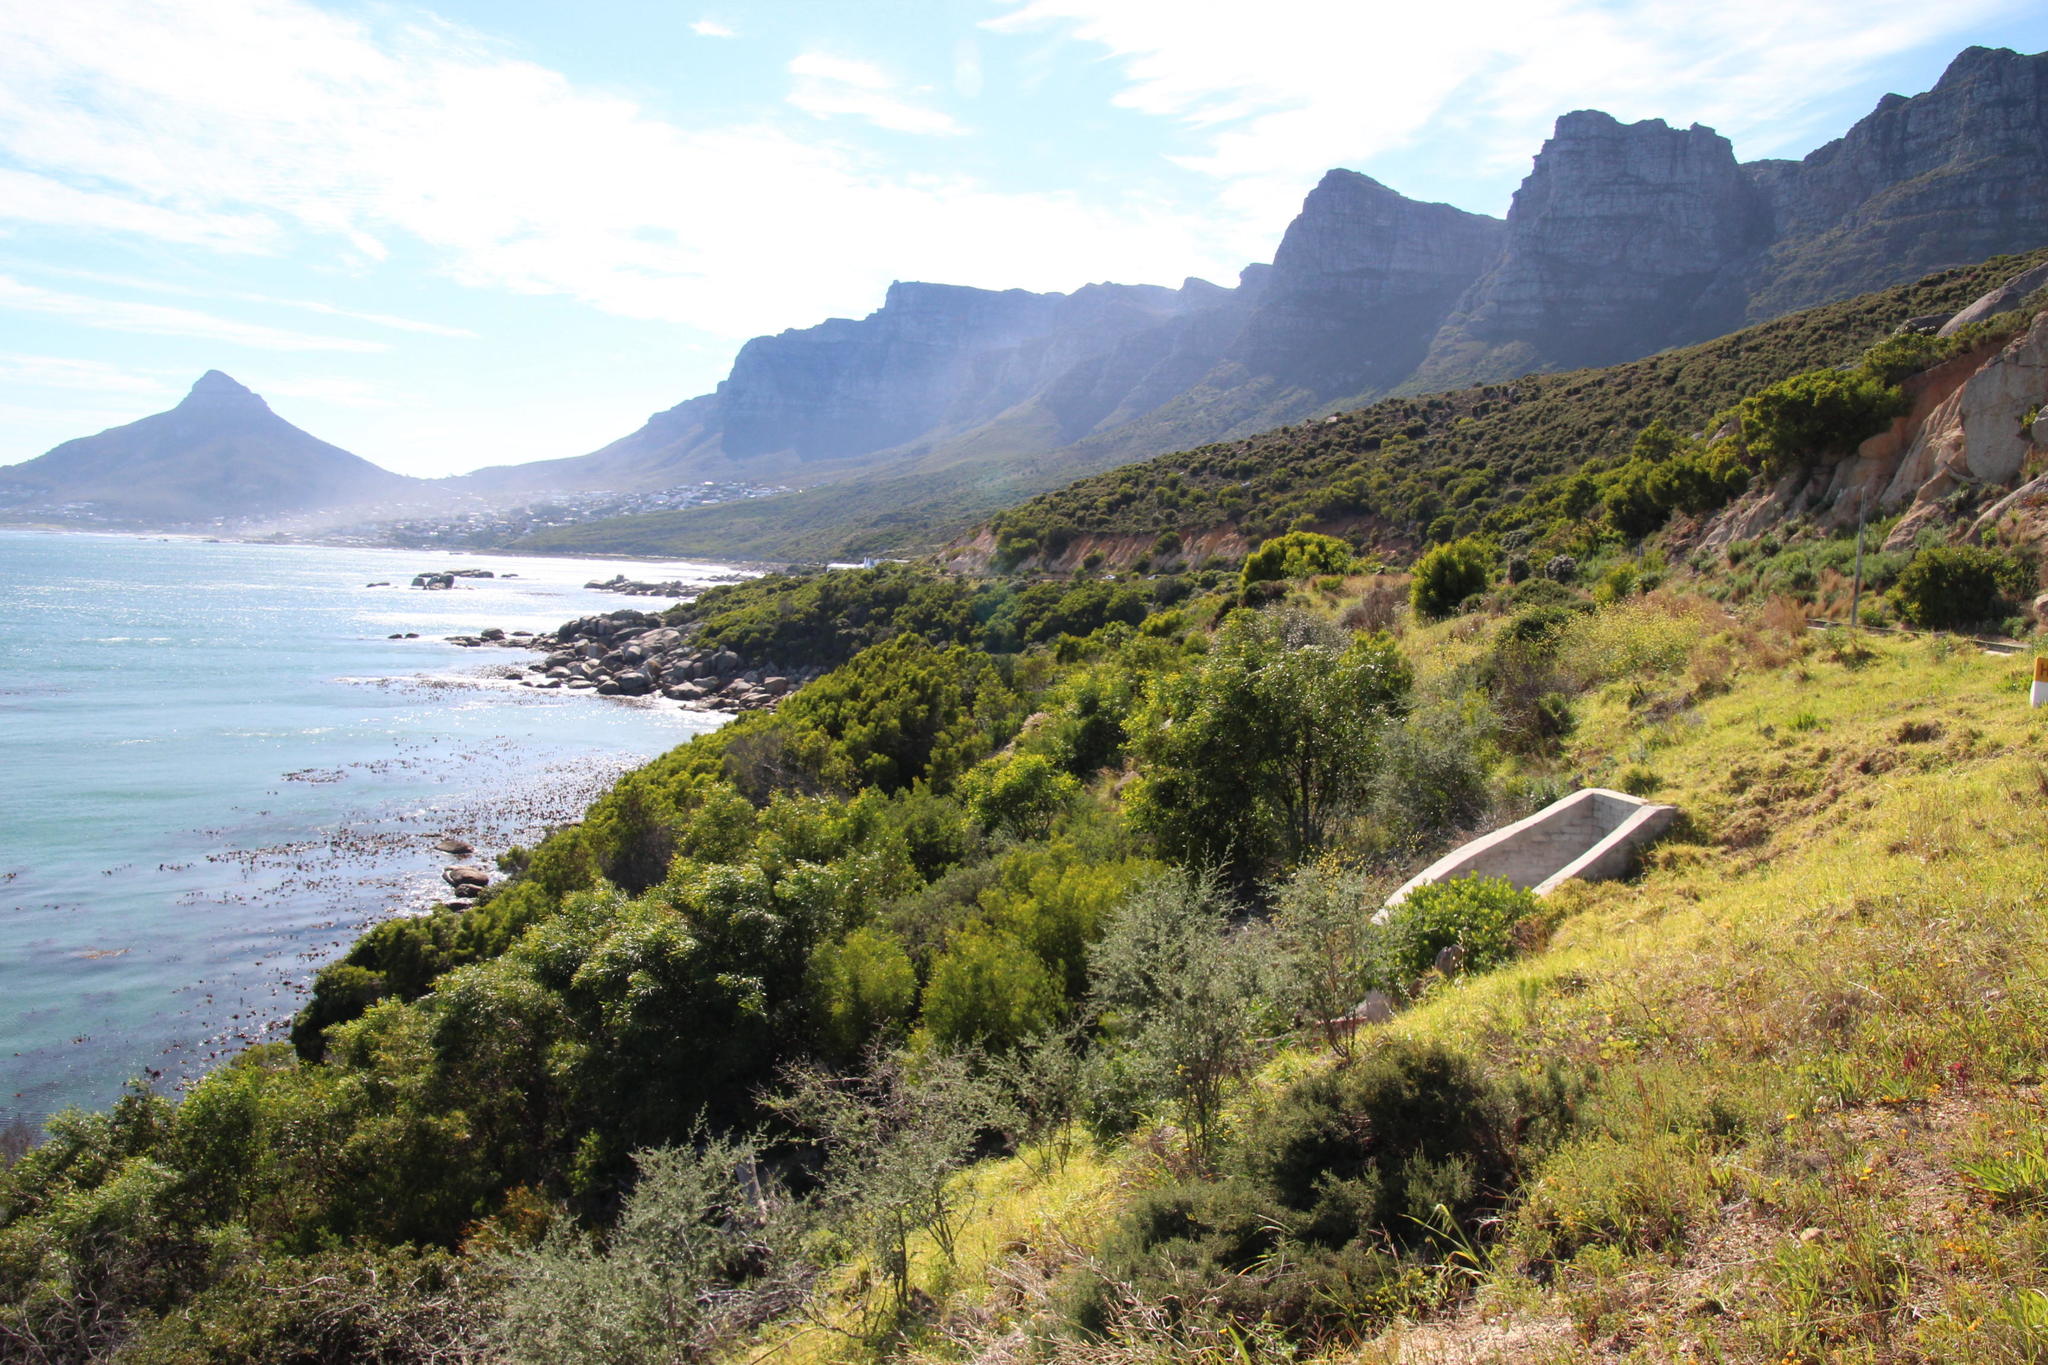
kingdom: Plantae
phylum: Tracheophyta
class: Magnoliopsida
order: Fabales
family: Fabaceae
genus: Acacia
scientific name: Acacia saligna
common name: Orange wattle
